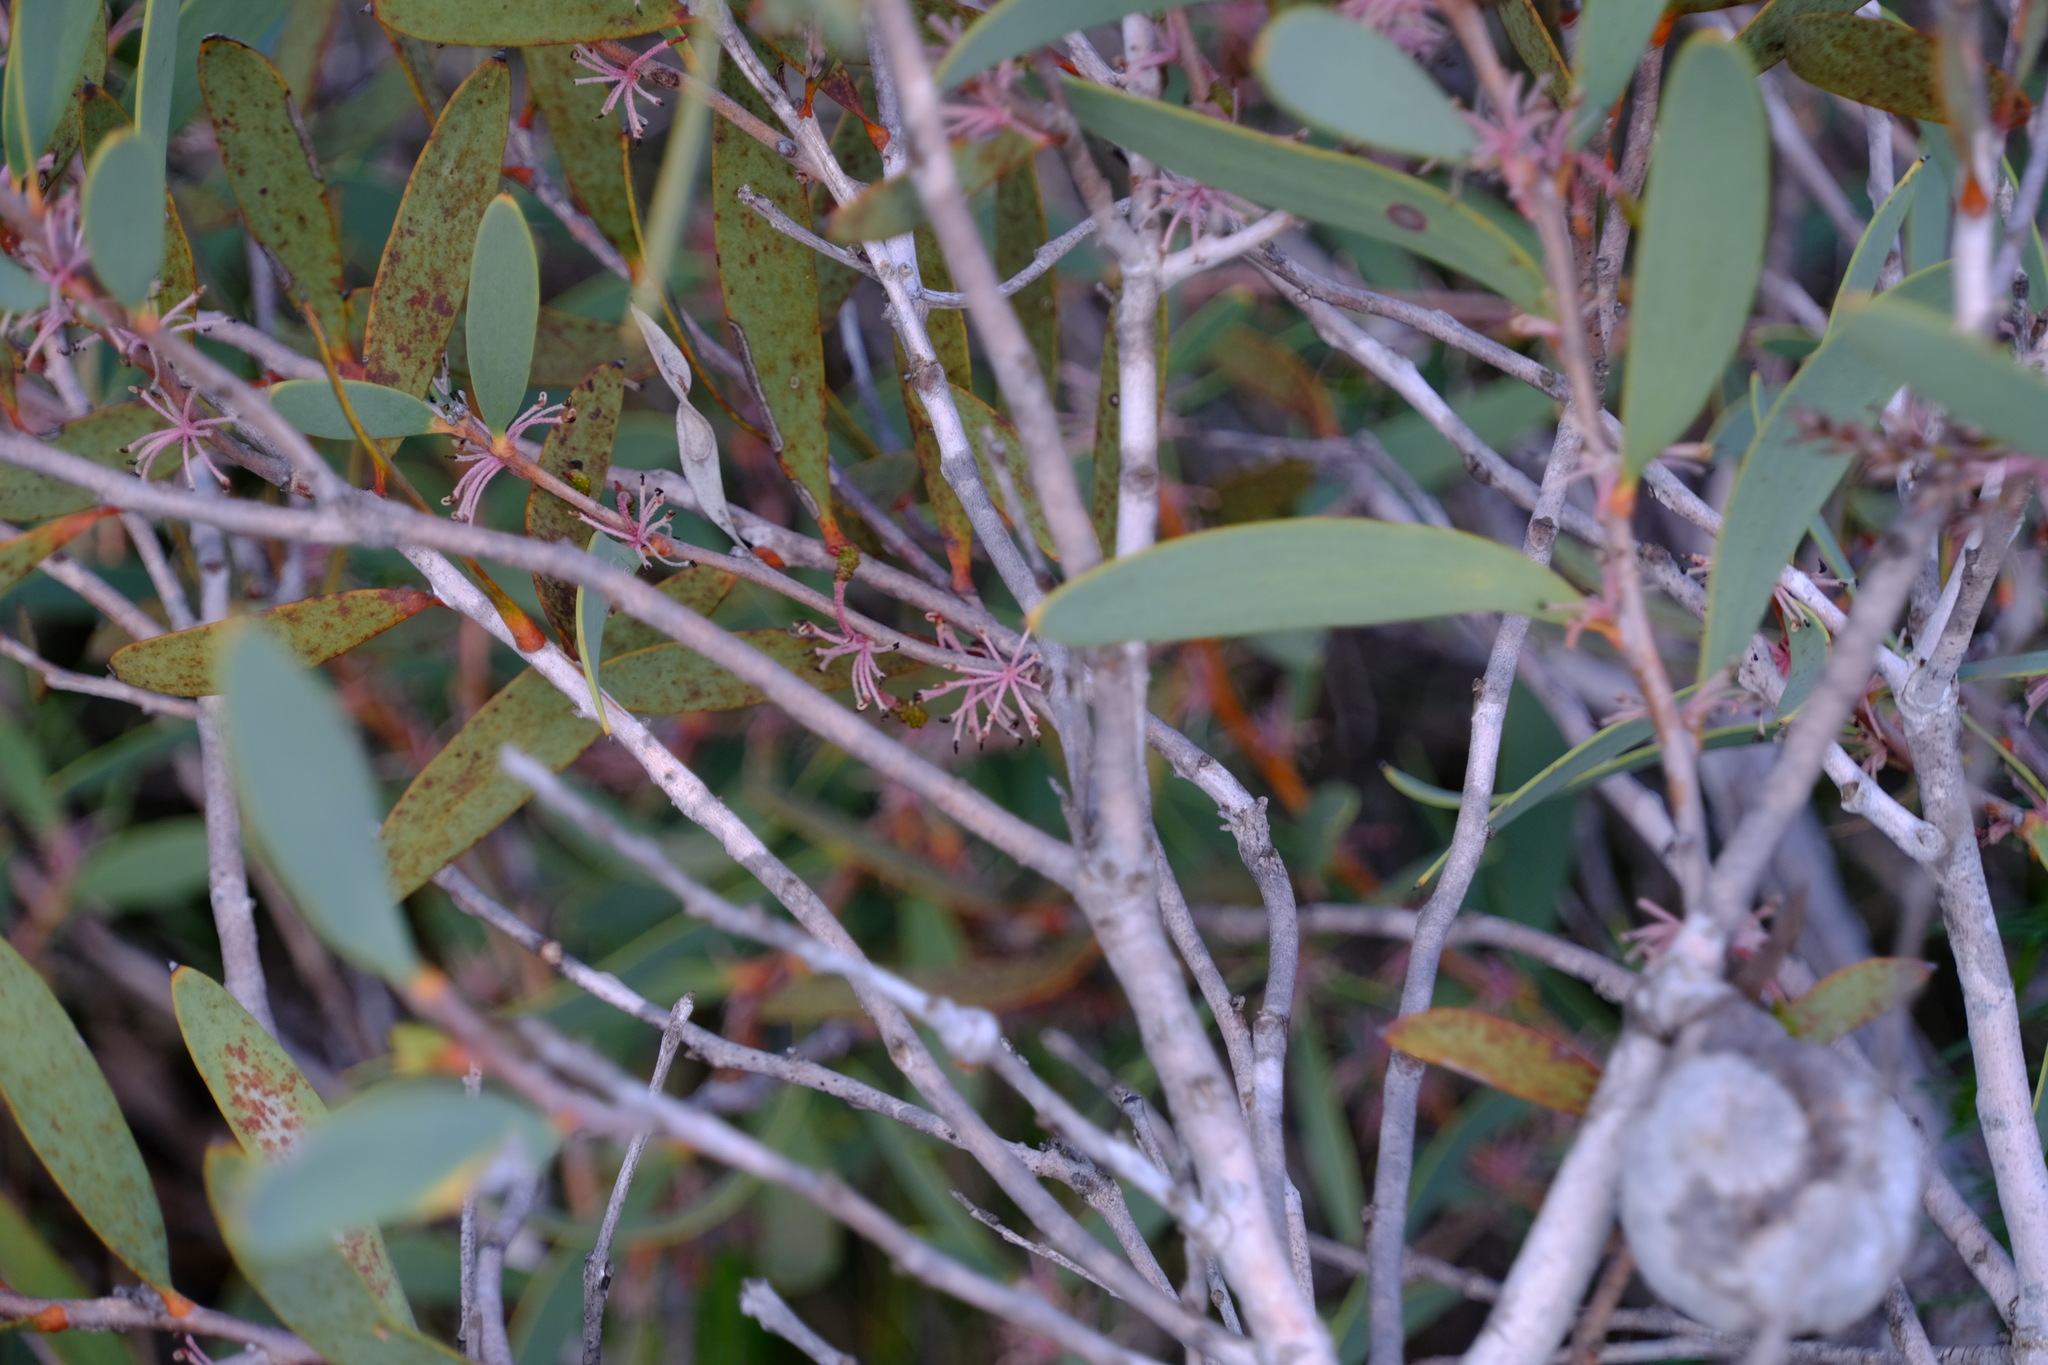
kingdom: Plantae
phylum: Tracheophyta
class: Magnoliopsida
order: Proteales
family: Proteaceae
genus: Hakea
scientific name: Hakea incrassata
